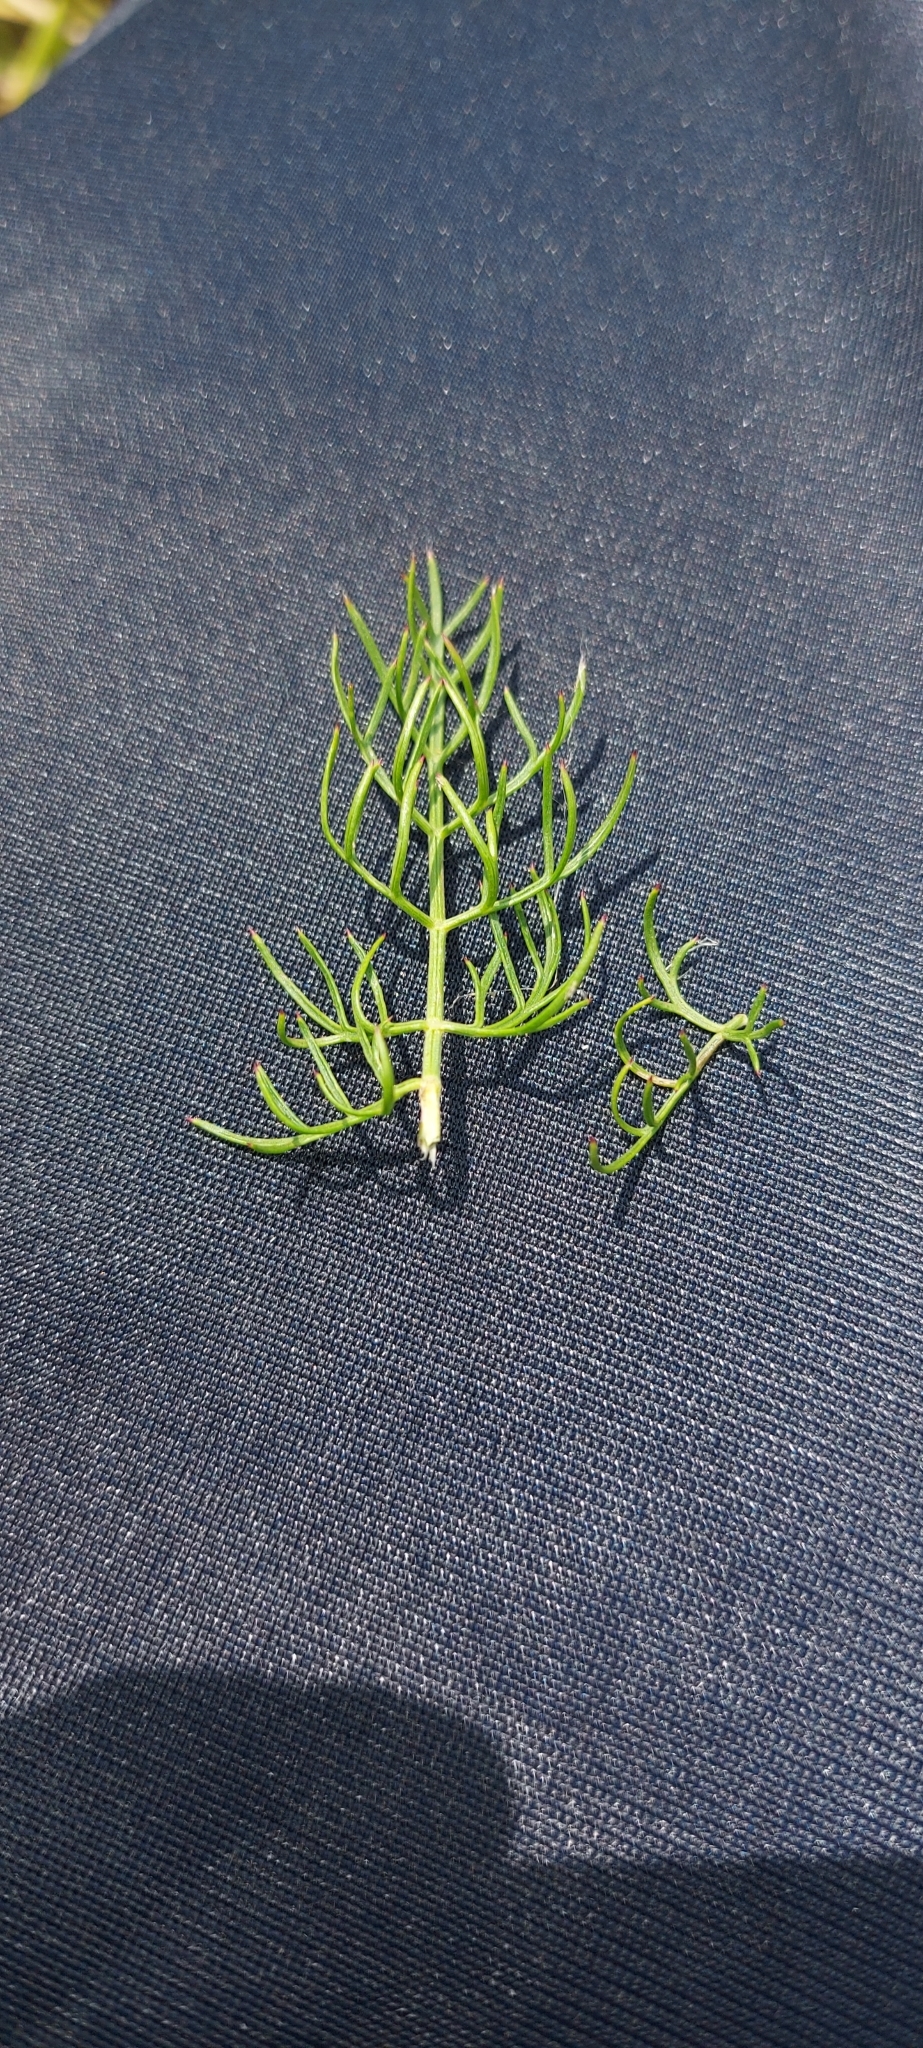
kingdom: Plantae
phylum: Tracheophyta
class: Magnoliopsida
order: Apiales
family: Apiaceae
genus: Seseli
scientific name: Seseli annuum
